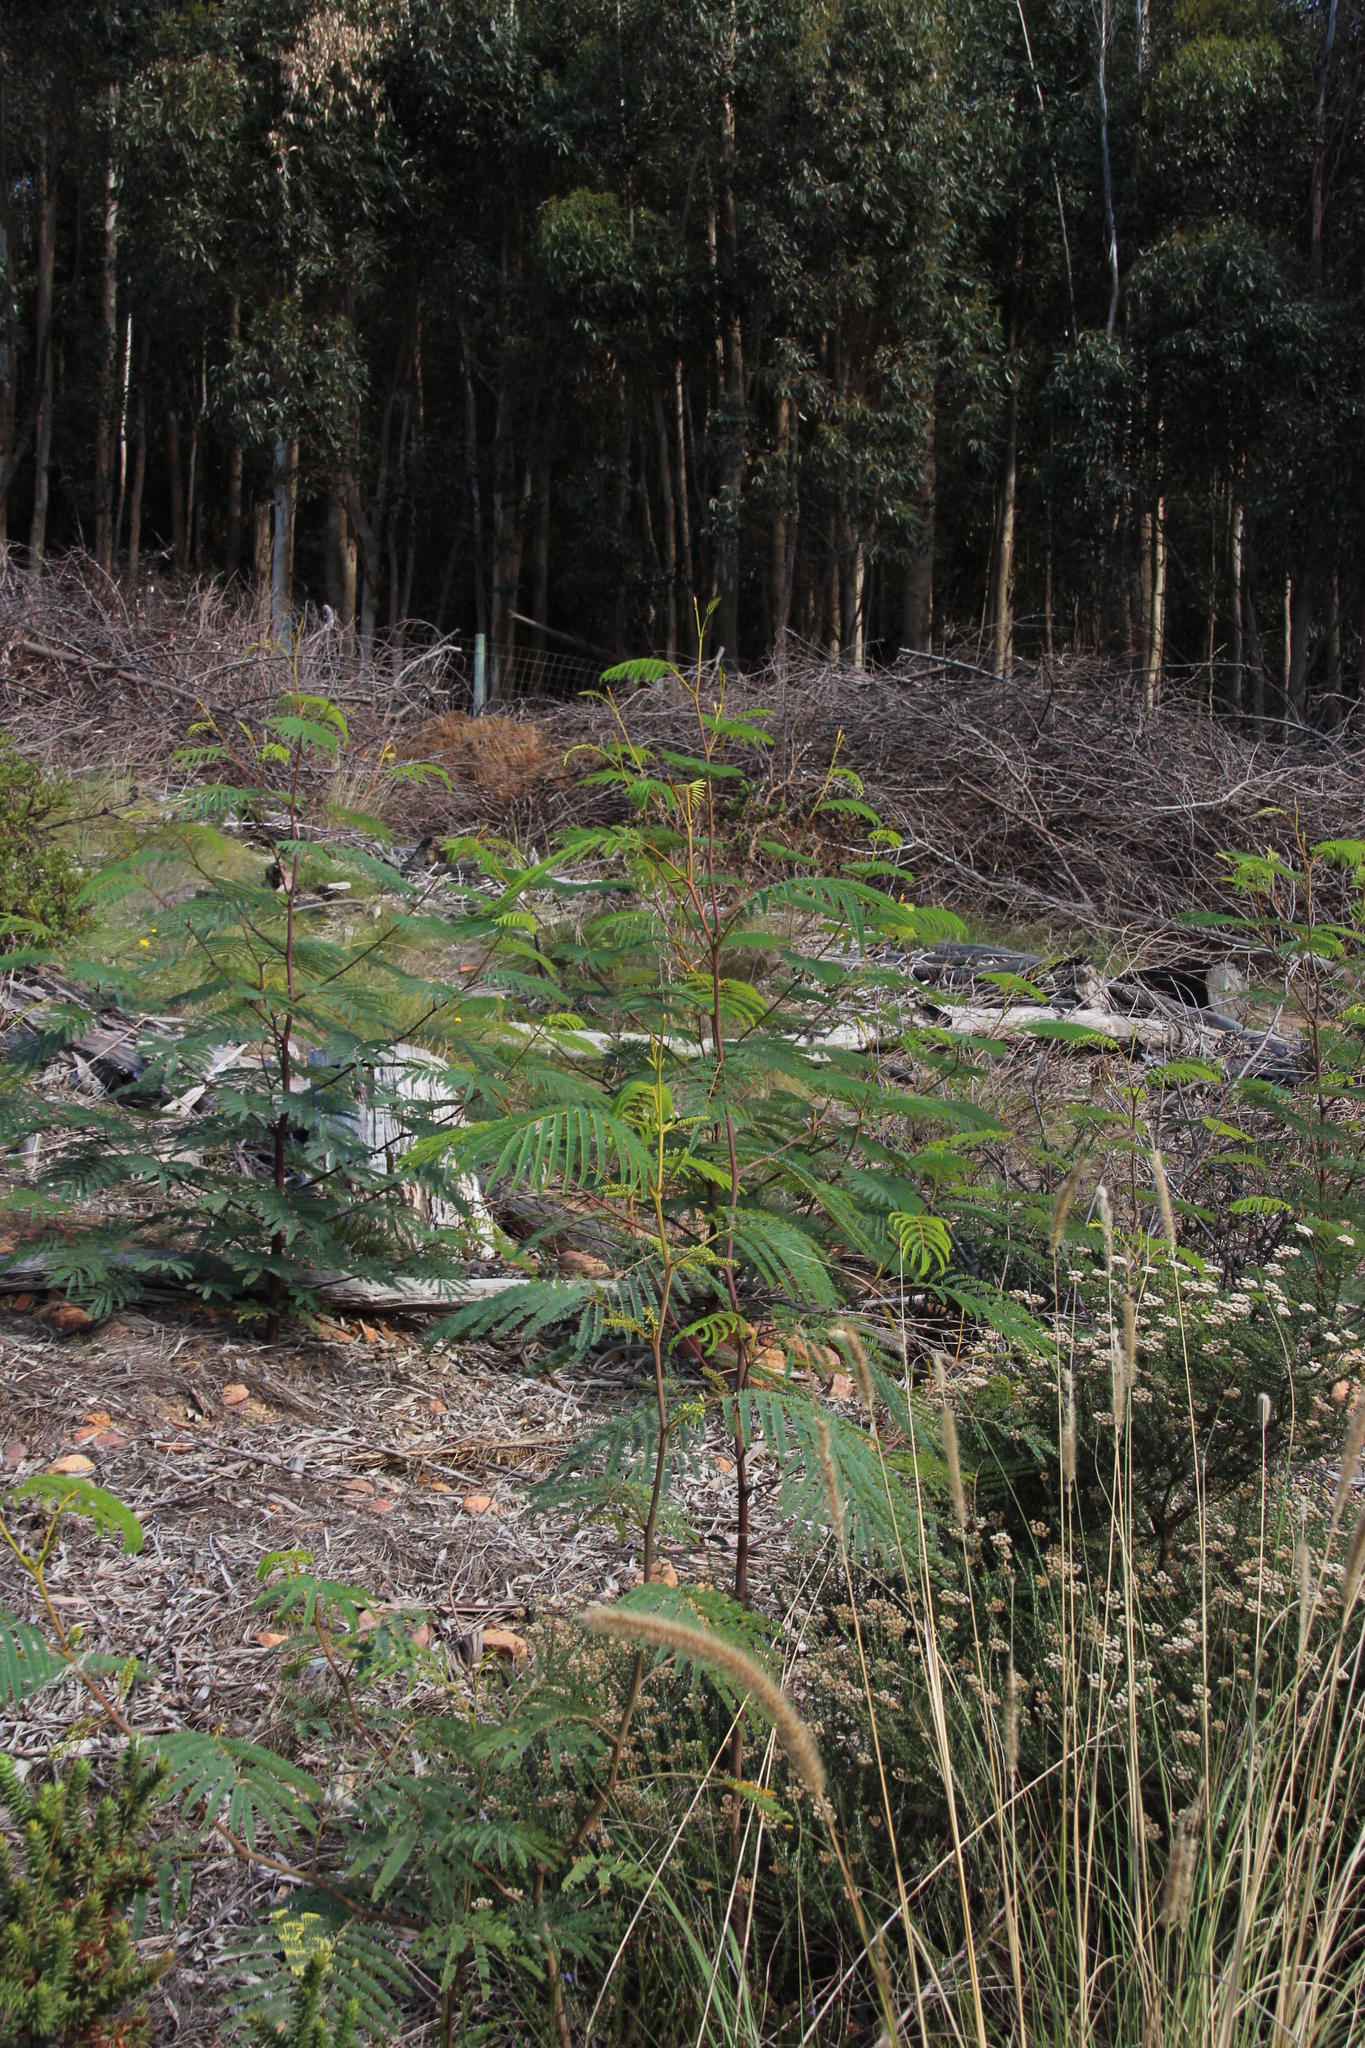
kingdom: Plantae
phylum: Tracheophyta
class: Magnoliopsida
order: Fabales
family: Fabaceae
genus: Paraserianthes
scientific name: Paraserianthes lophantha
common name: Plume albizia
